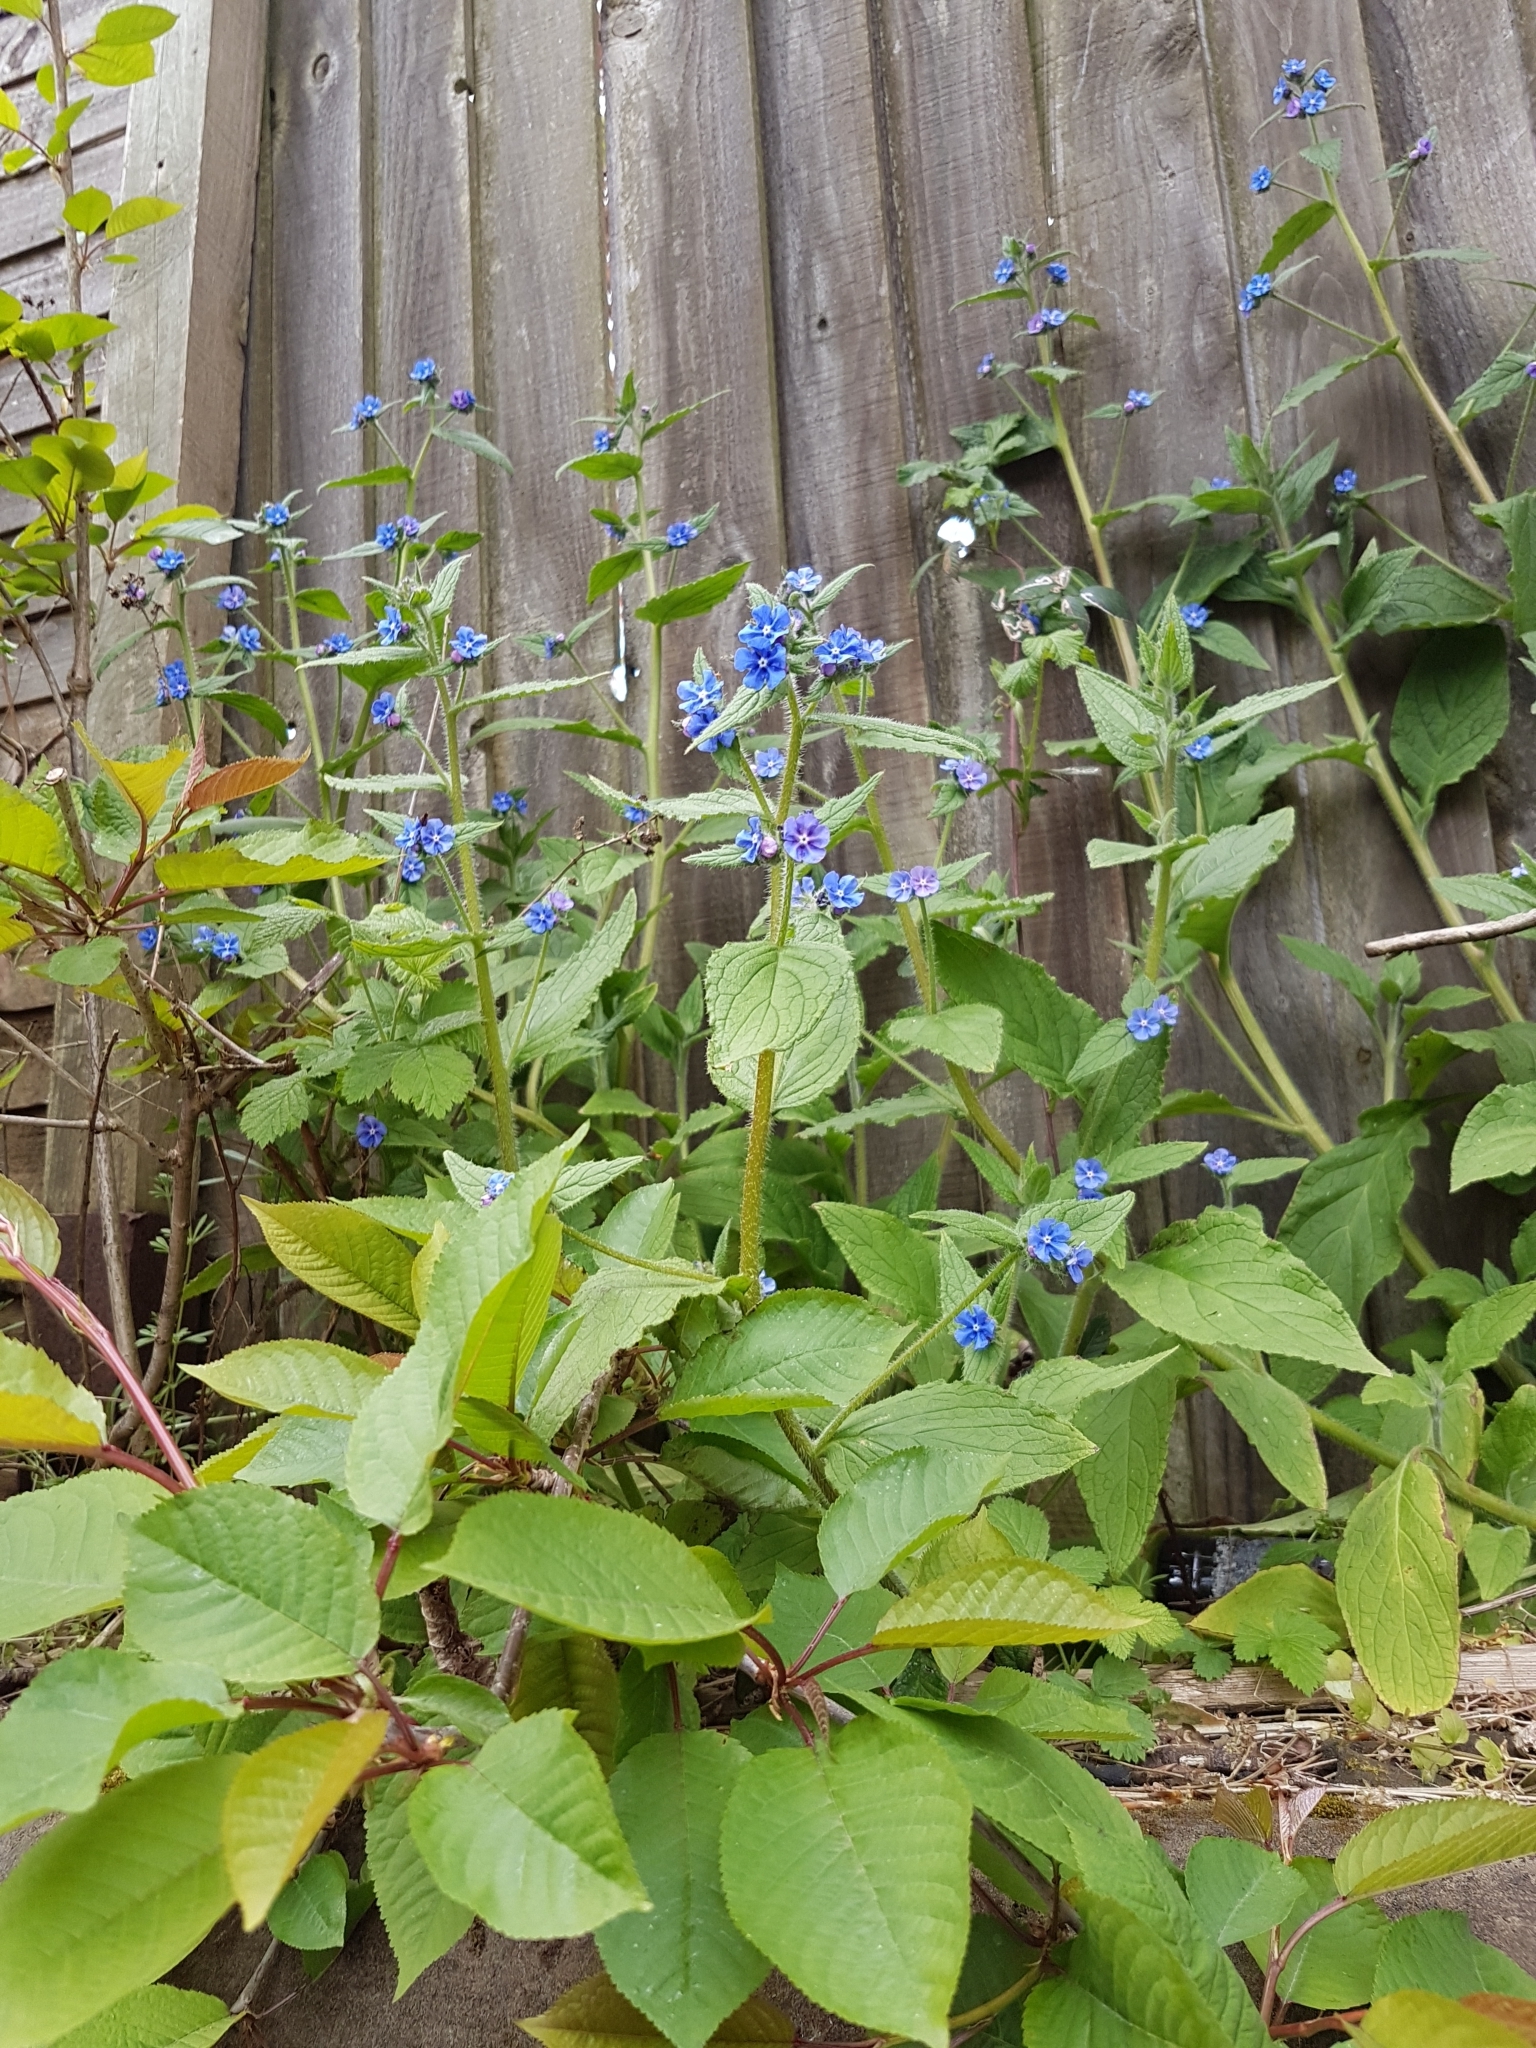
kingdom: Plantae
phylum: Tracheophyta
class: Magnoliopsida
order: Boraginales
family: Boraginaceae
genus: Pentaglottis
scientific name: Pentaglottis sempervirens
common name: Green alkanet
